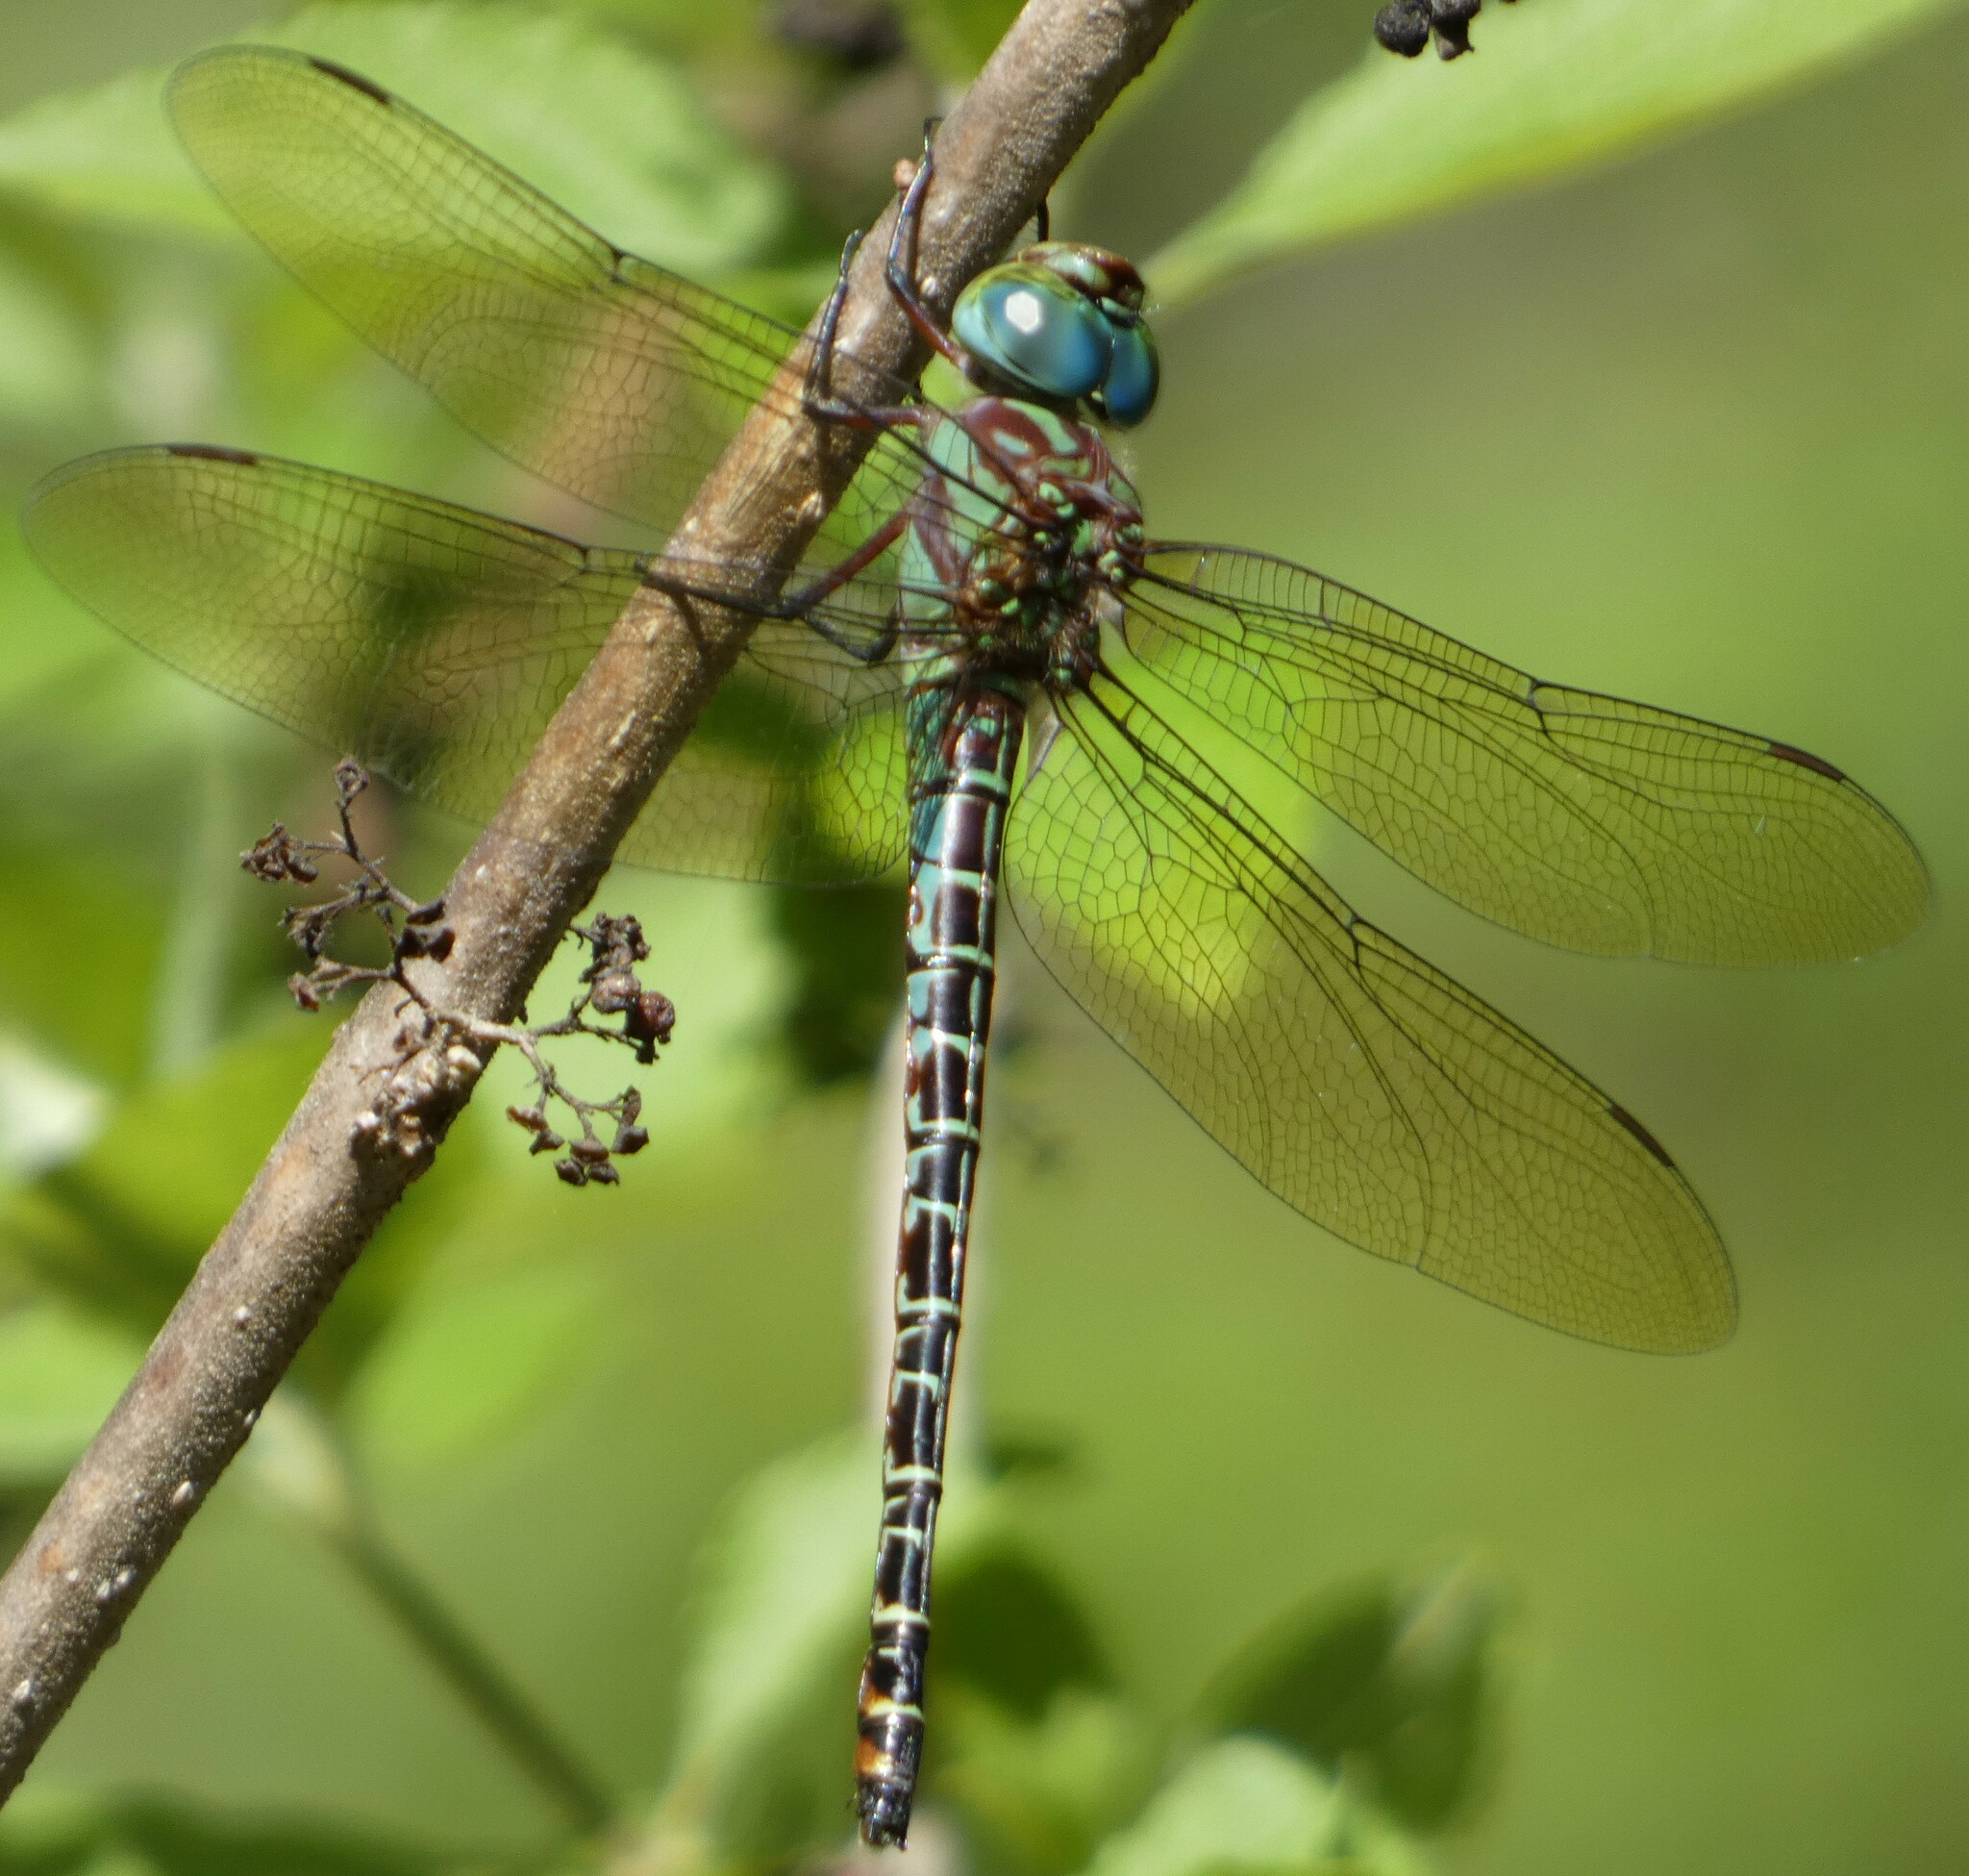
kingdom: Animalia
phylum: Arthropoda
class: Insecta
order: Odonata
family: Aeshnidae
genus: Coryphaeschna
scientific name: Coryphaeschna ingens
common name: Regal darner
